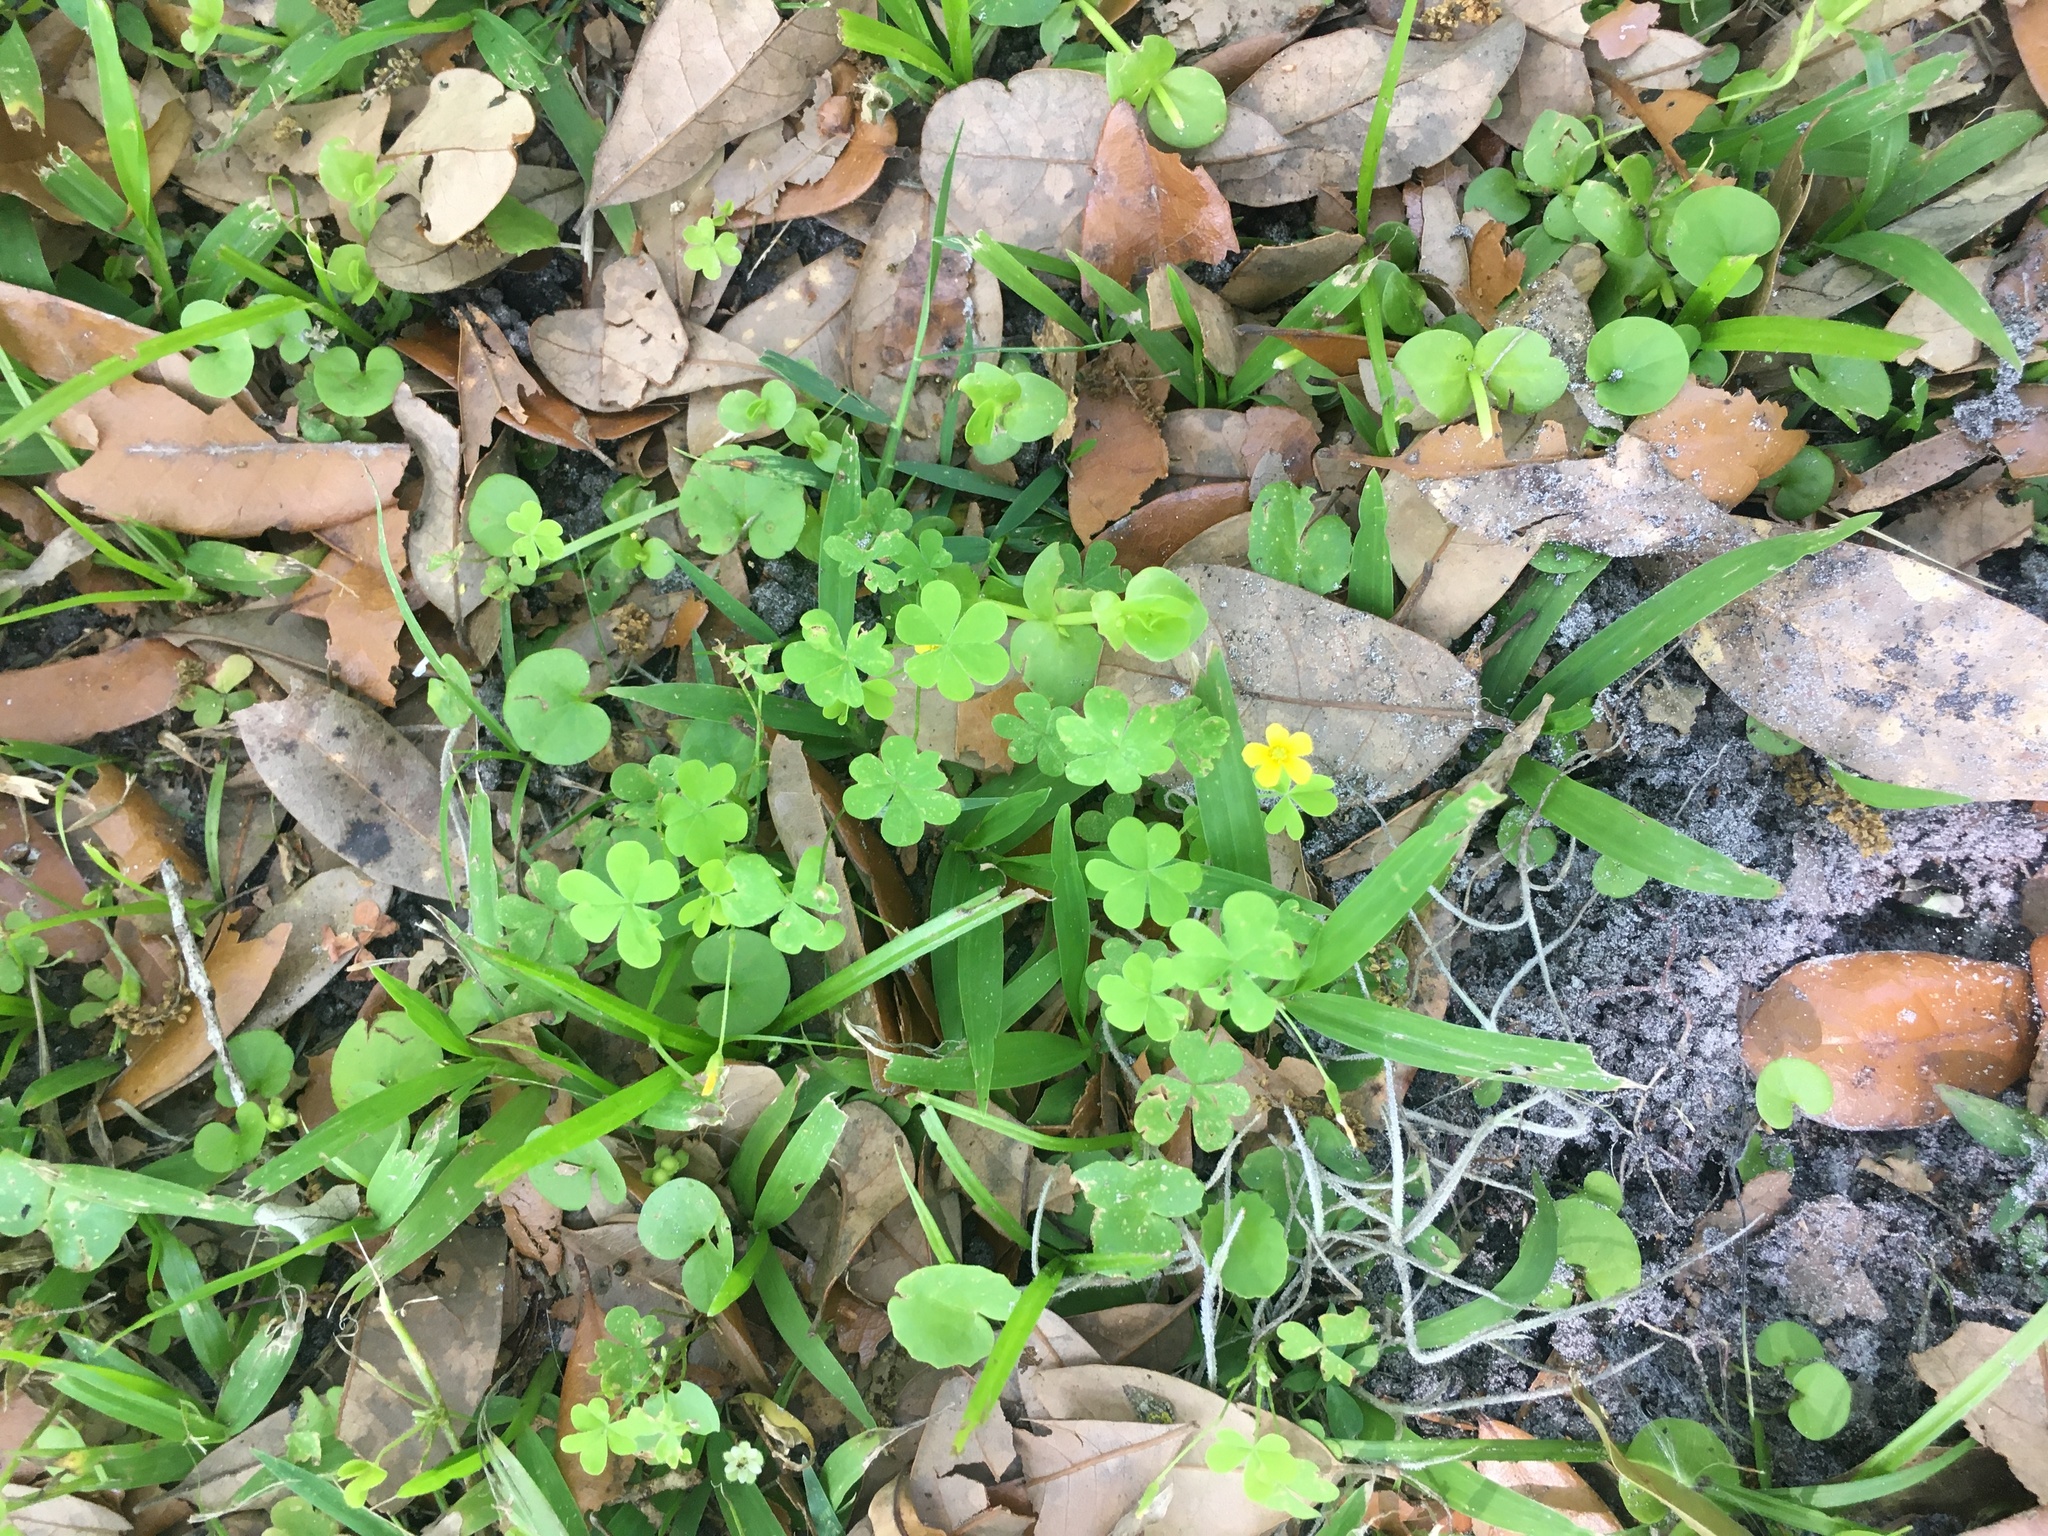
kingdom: Plantae
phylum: Tracheophyta
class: Magnoliopsida
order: Oxalidales
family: Oxalidaceae
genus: Oxalis
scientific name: Oxalis corniculata
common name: Procumbent yellow-sorrel
